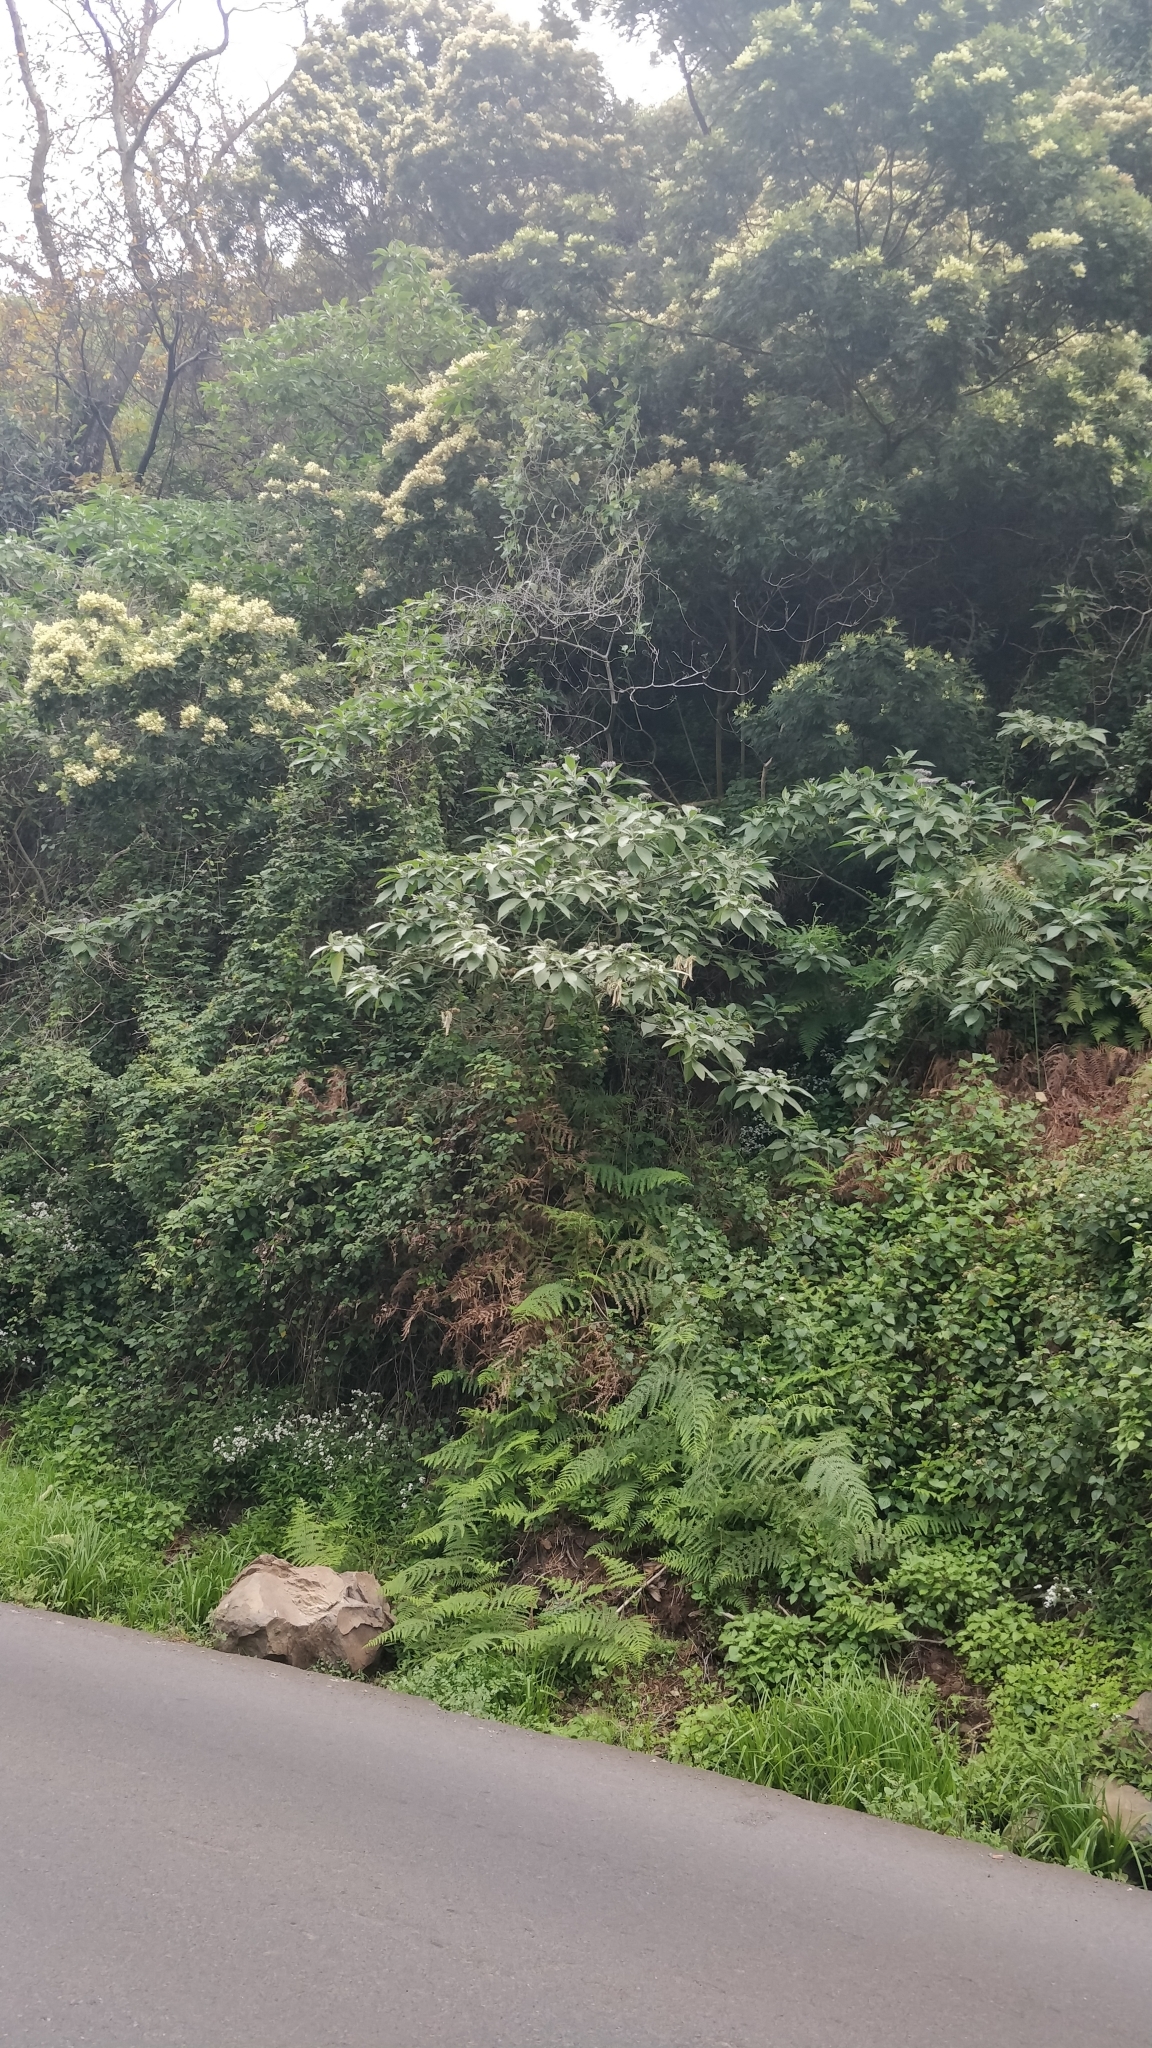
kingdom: Plantae
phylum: Tracheophyta
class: Magnoliopsida
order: Solanales
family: Solanaceae
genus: Solanum
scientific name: Solanum mauritianum
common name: Earleaf nightshade
